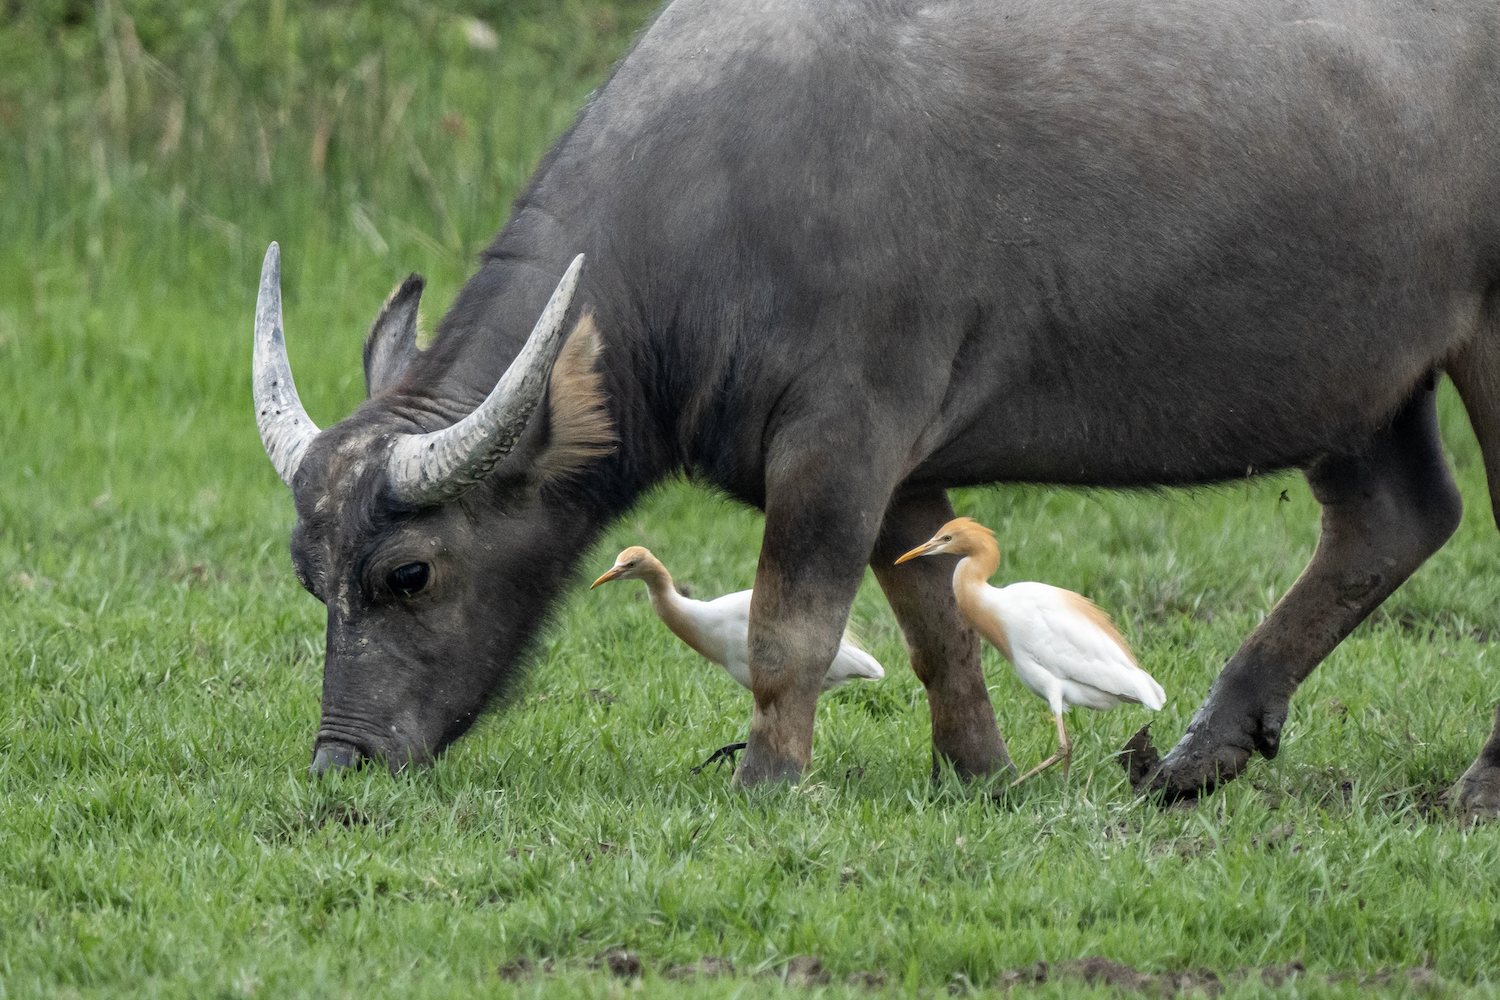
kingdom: Animalia
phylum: Chordata
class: Aves
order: Pelecaniformes
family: Ardeidae
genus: Bubulcus
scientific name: Bubulcus coromandus
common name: Eastern cattle egret
